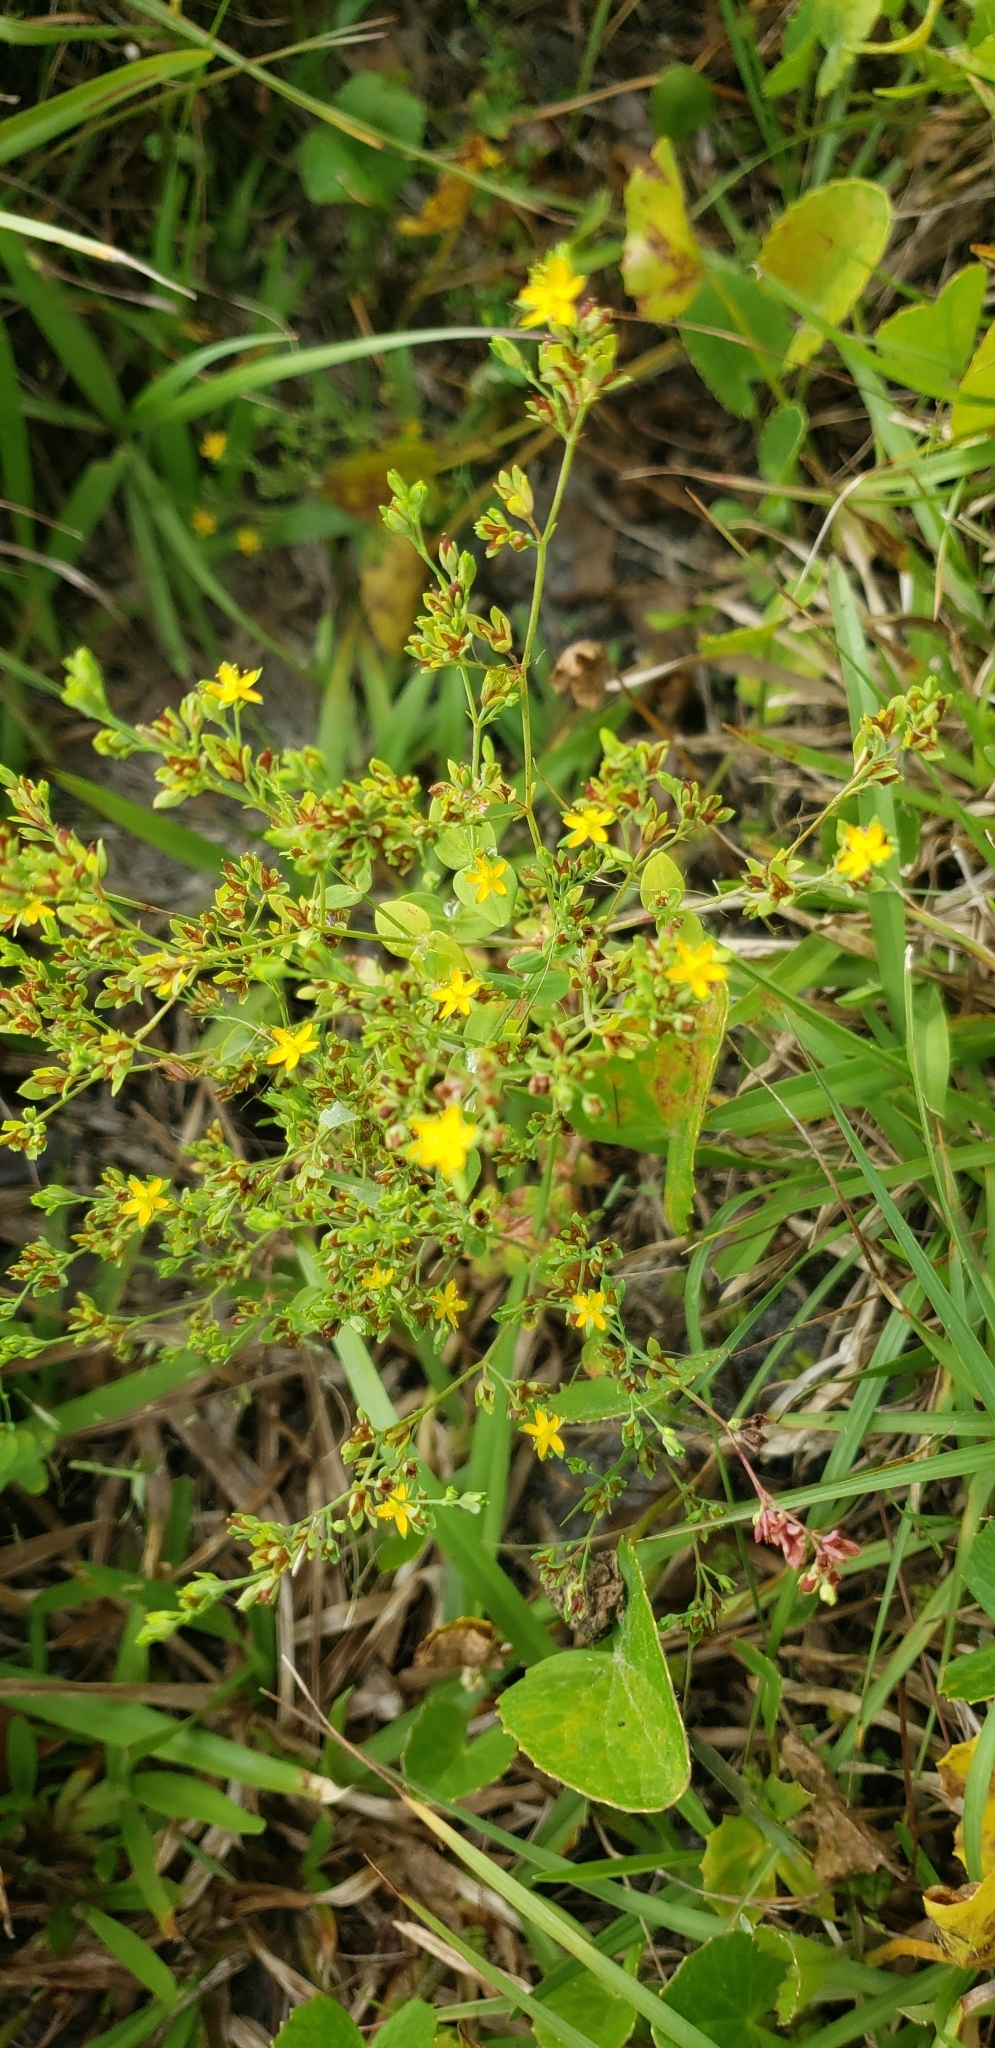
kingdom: Plantae
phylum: Tracheophyta
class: Magnoliopsida
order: Malpighiales
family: Hypericaceae
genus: Hypericum
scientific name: Hypericum mutilum
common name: Dwarf st. john's-wort
